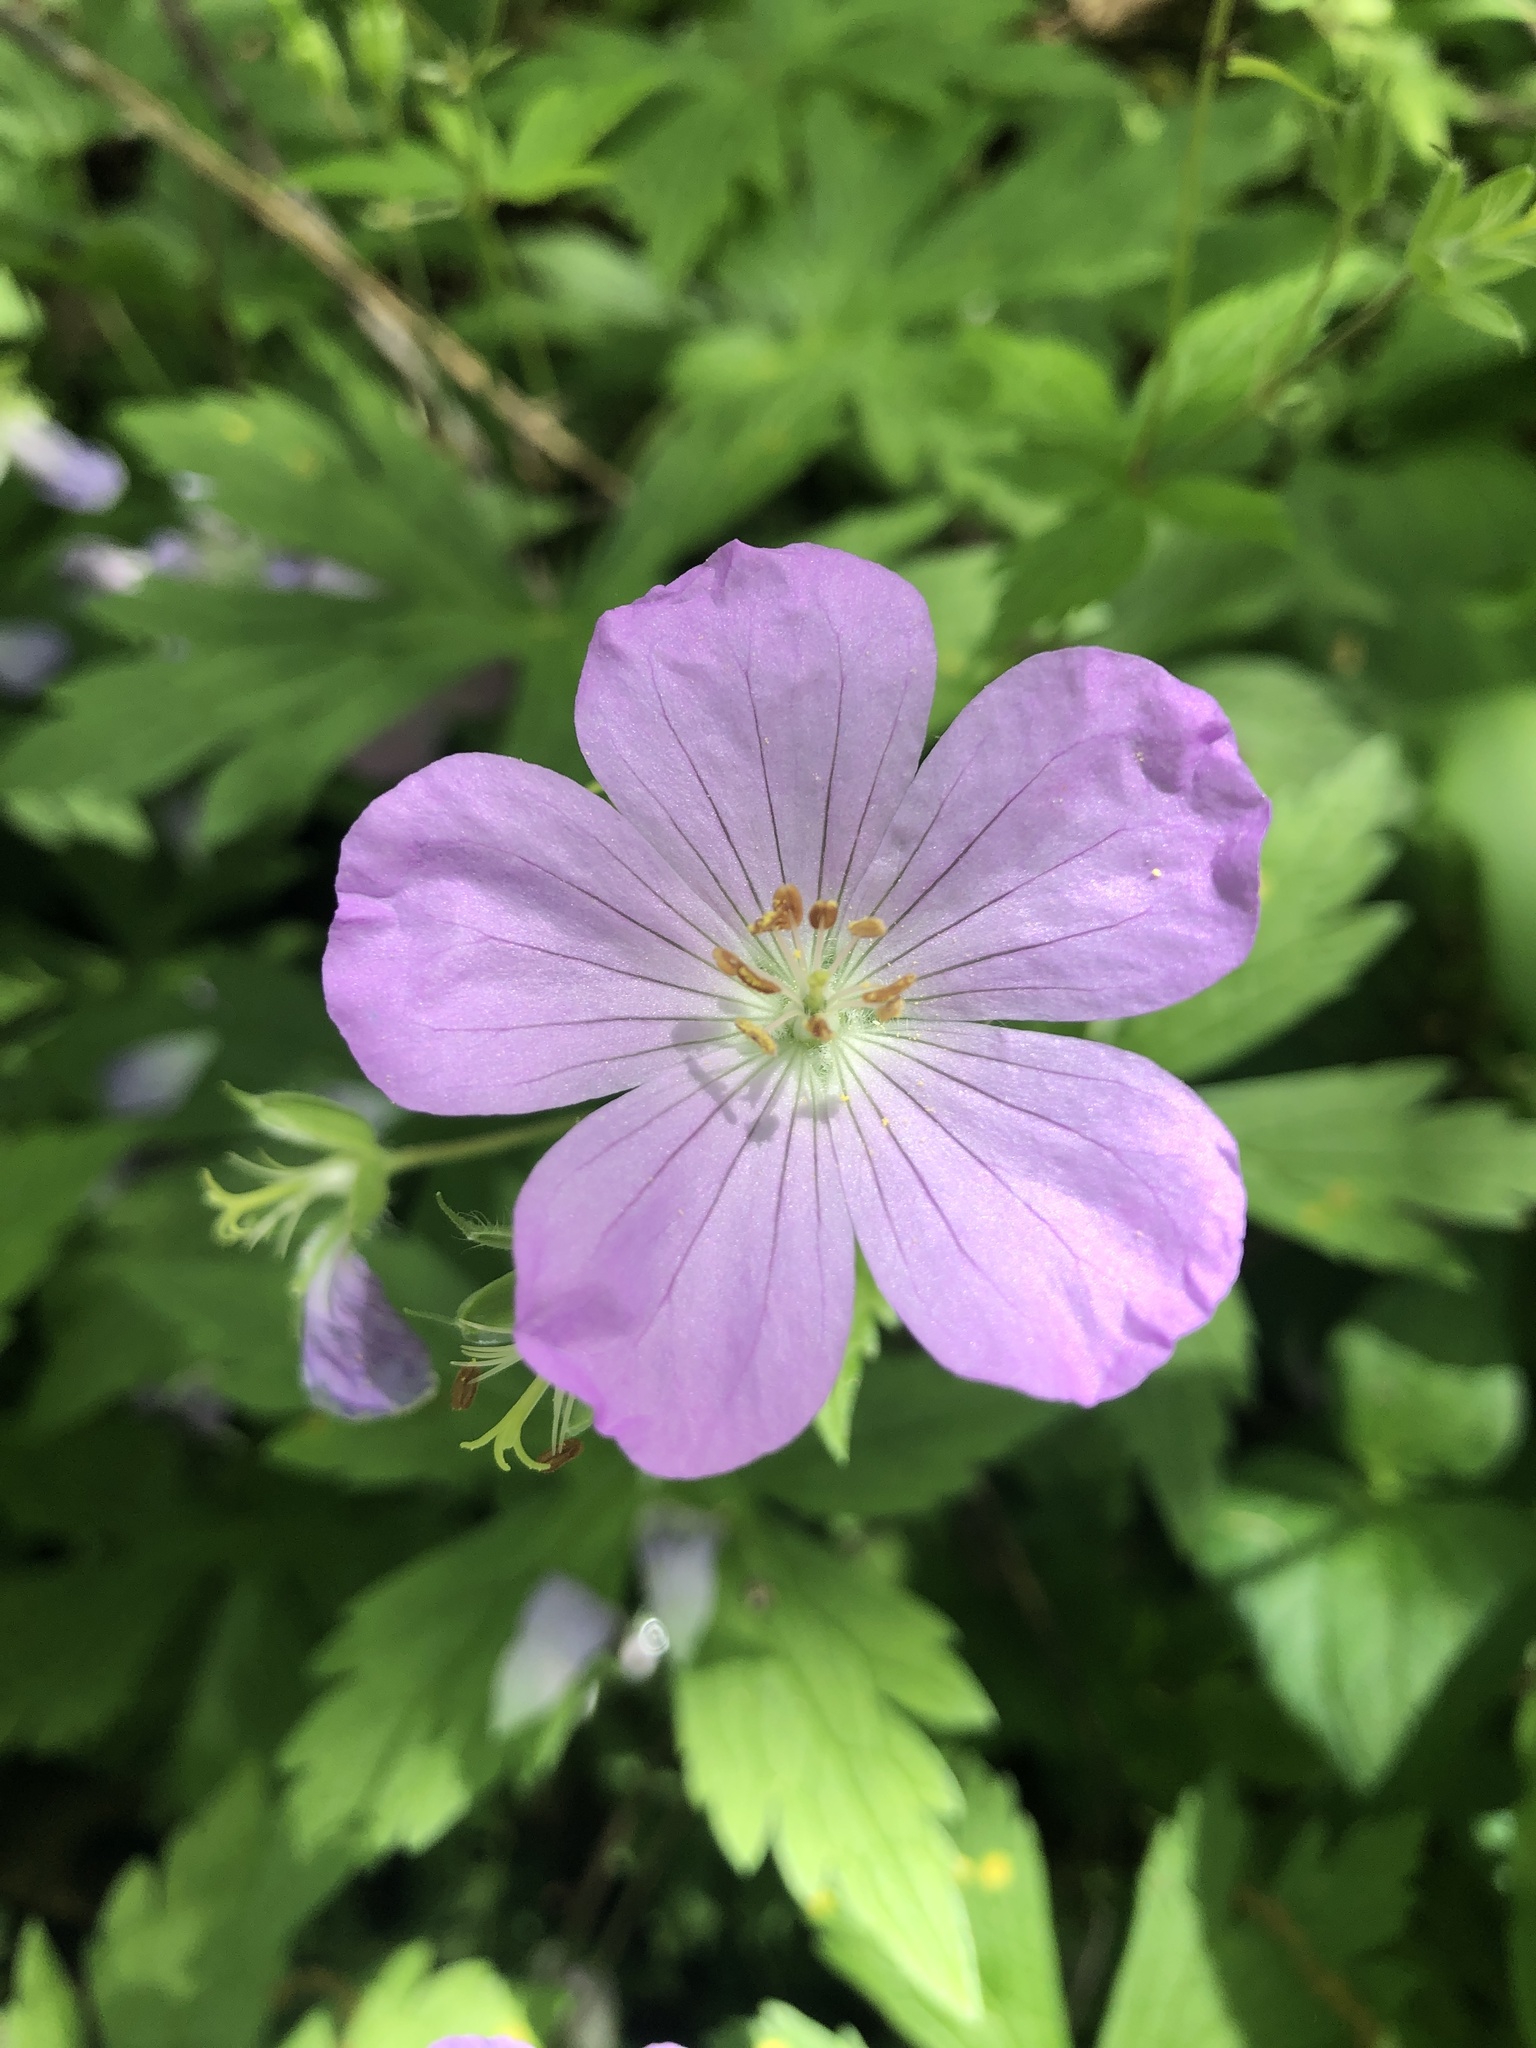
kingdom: Plantae
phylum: Tracheophyta
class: Magnoliopsida
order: Geraniales
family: Geraniaceae
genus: Geranium
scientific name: Geranium maculatum
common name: Spotted geranium
